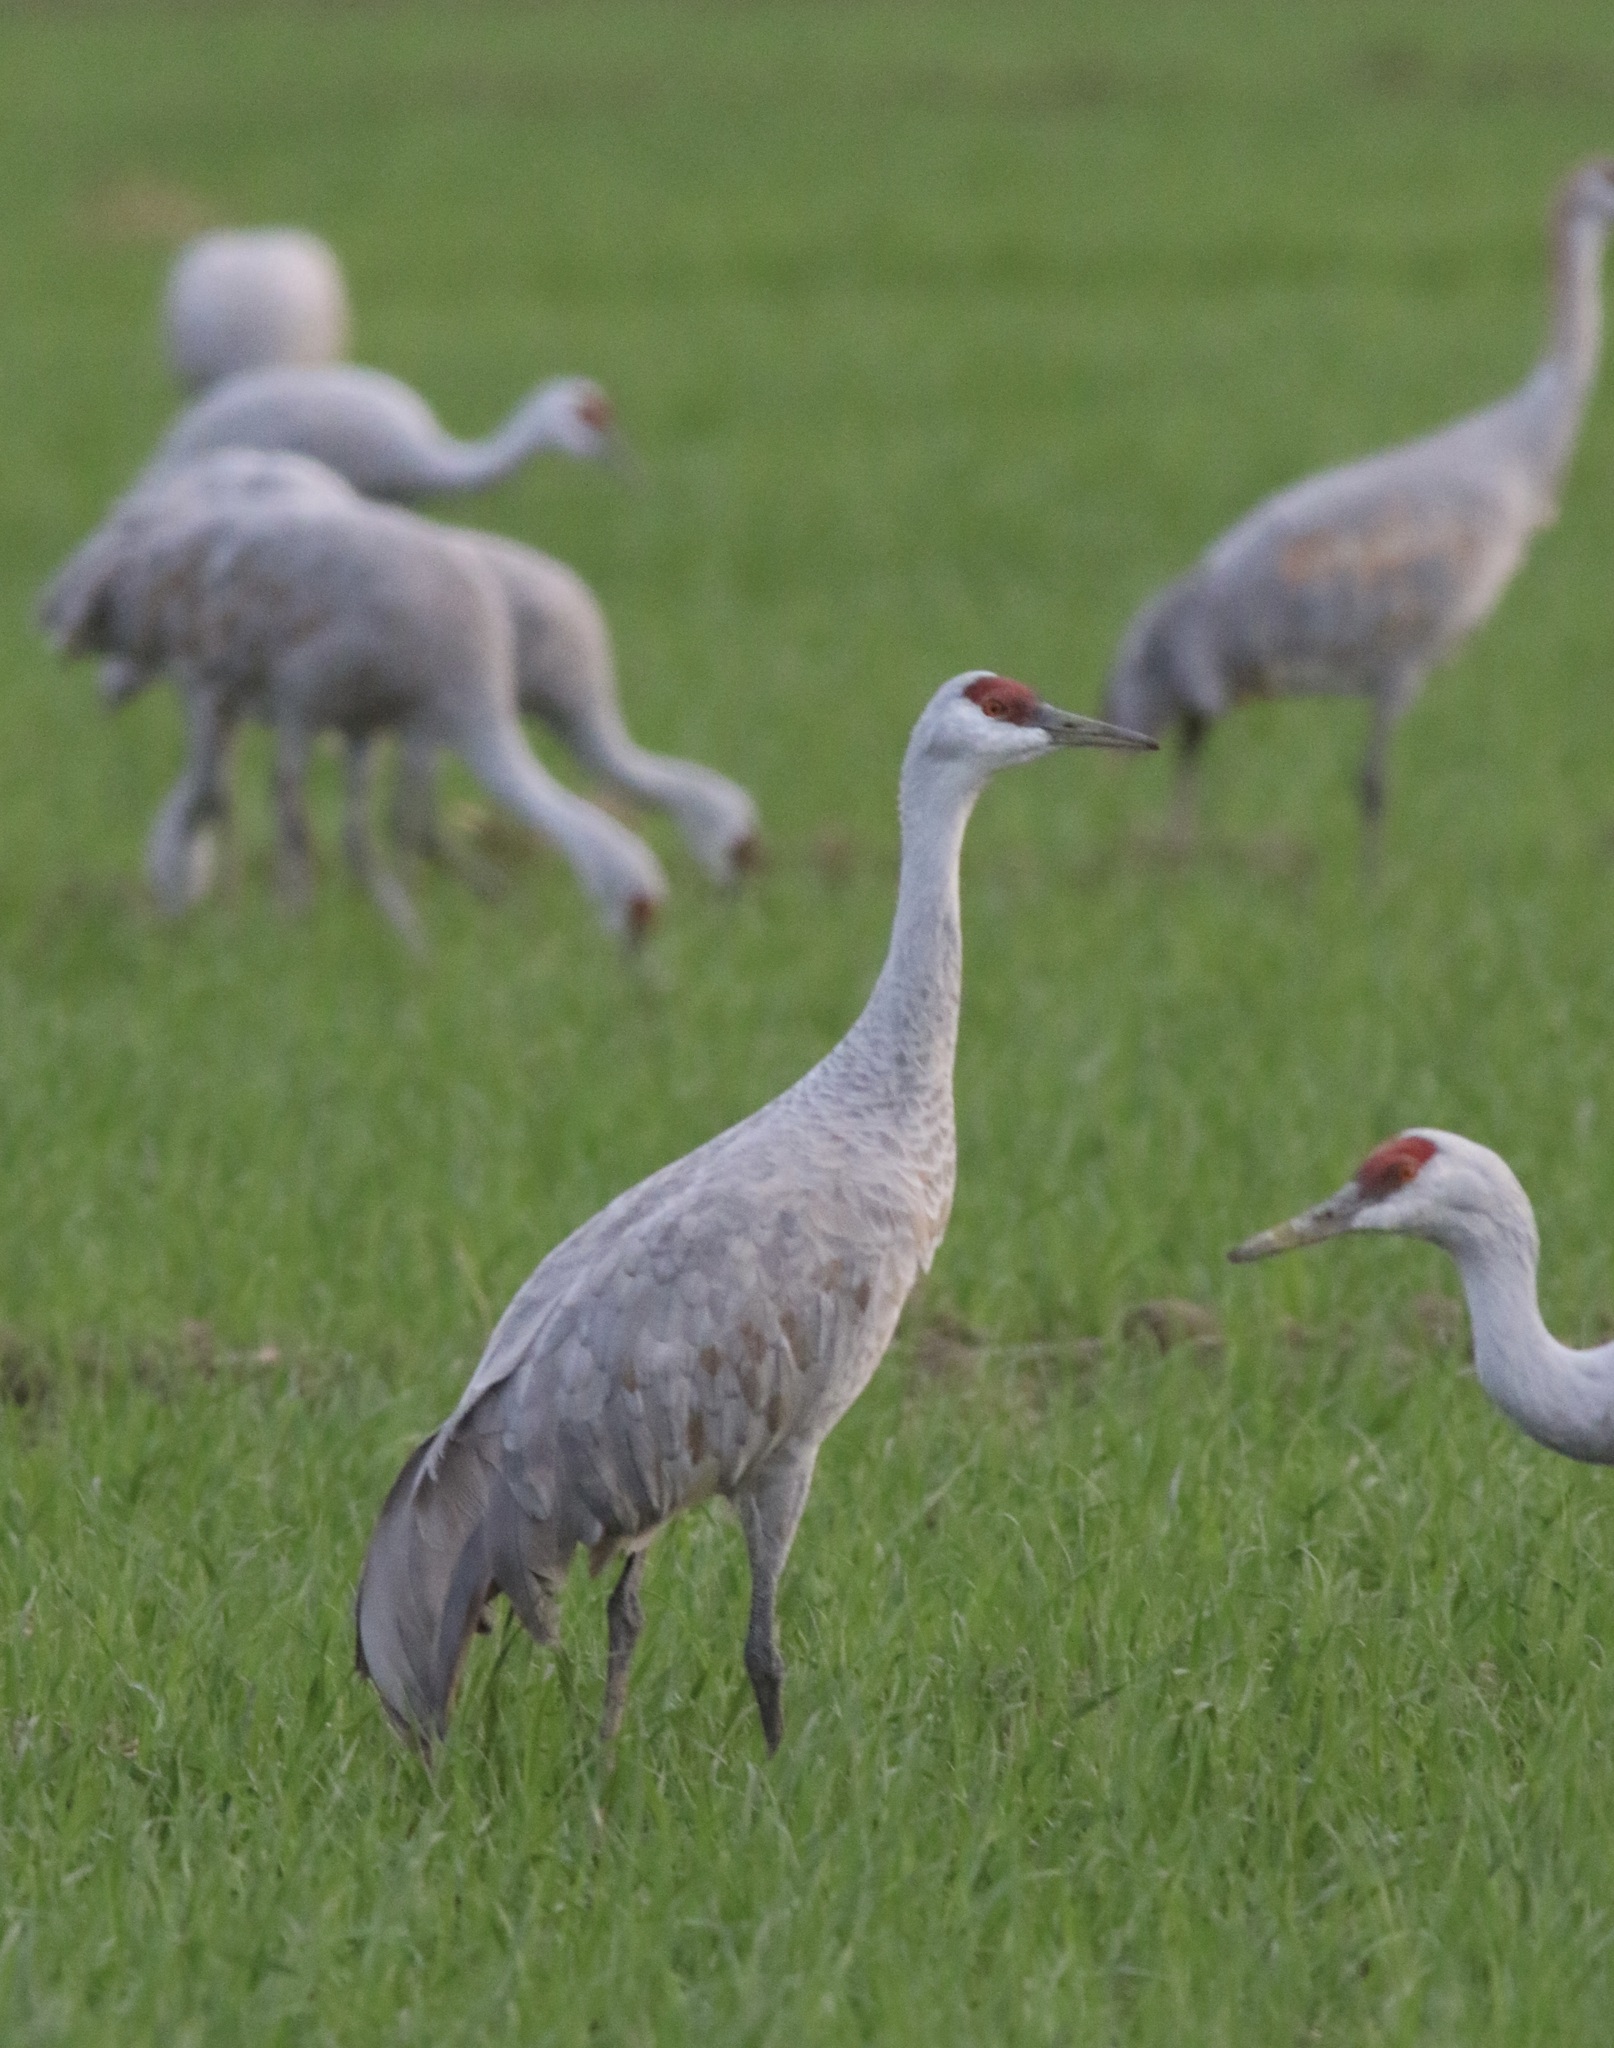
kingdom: Animalia
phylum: Chordata
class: Aves
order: Gruiformes
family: Gruidae
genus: Grus
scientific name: Grus canadensis
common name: Sandhill crane
